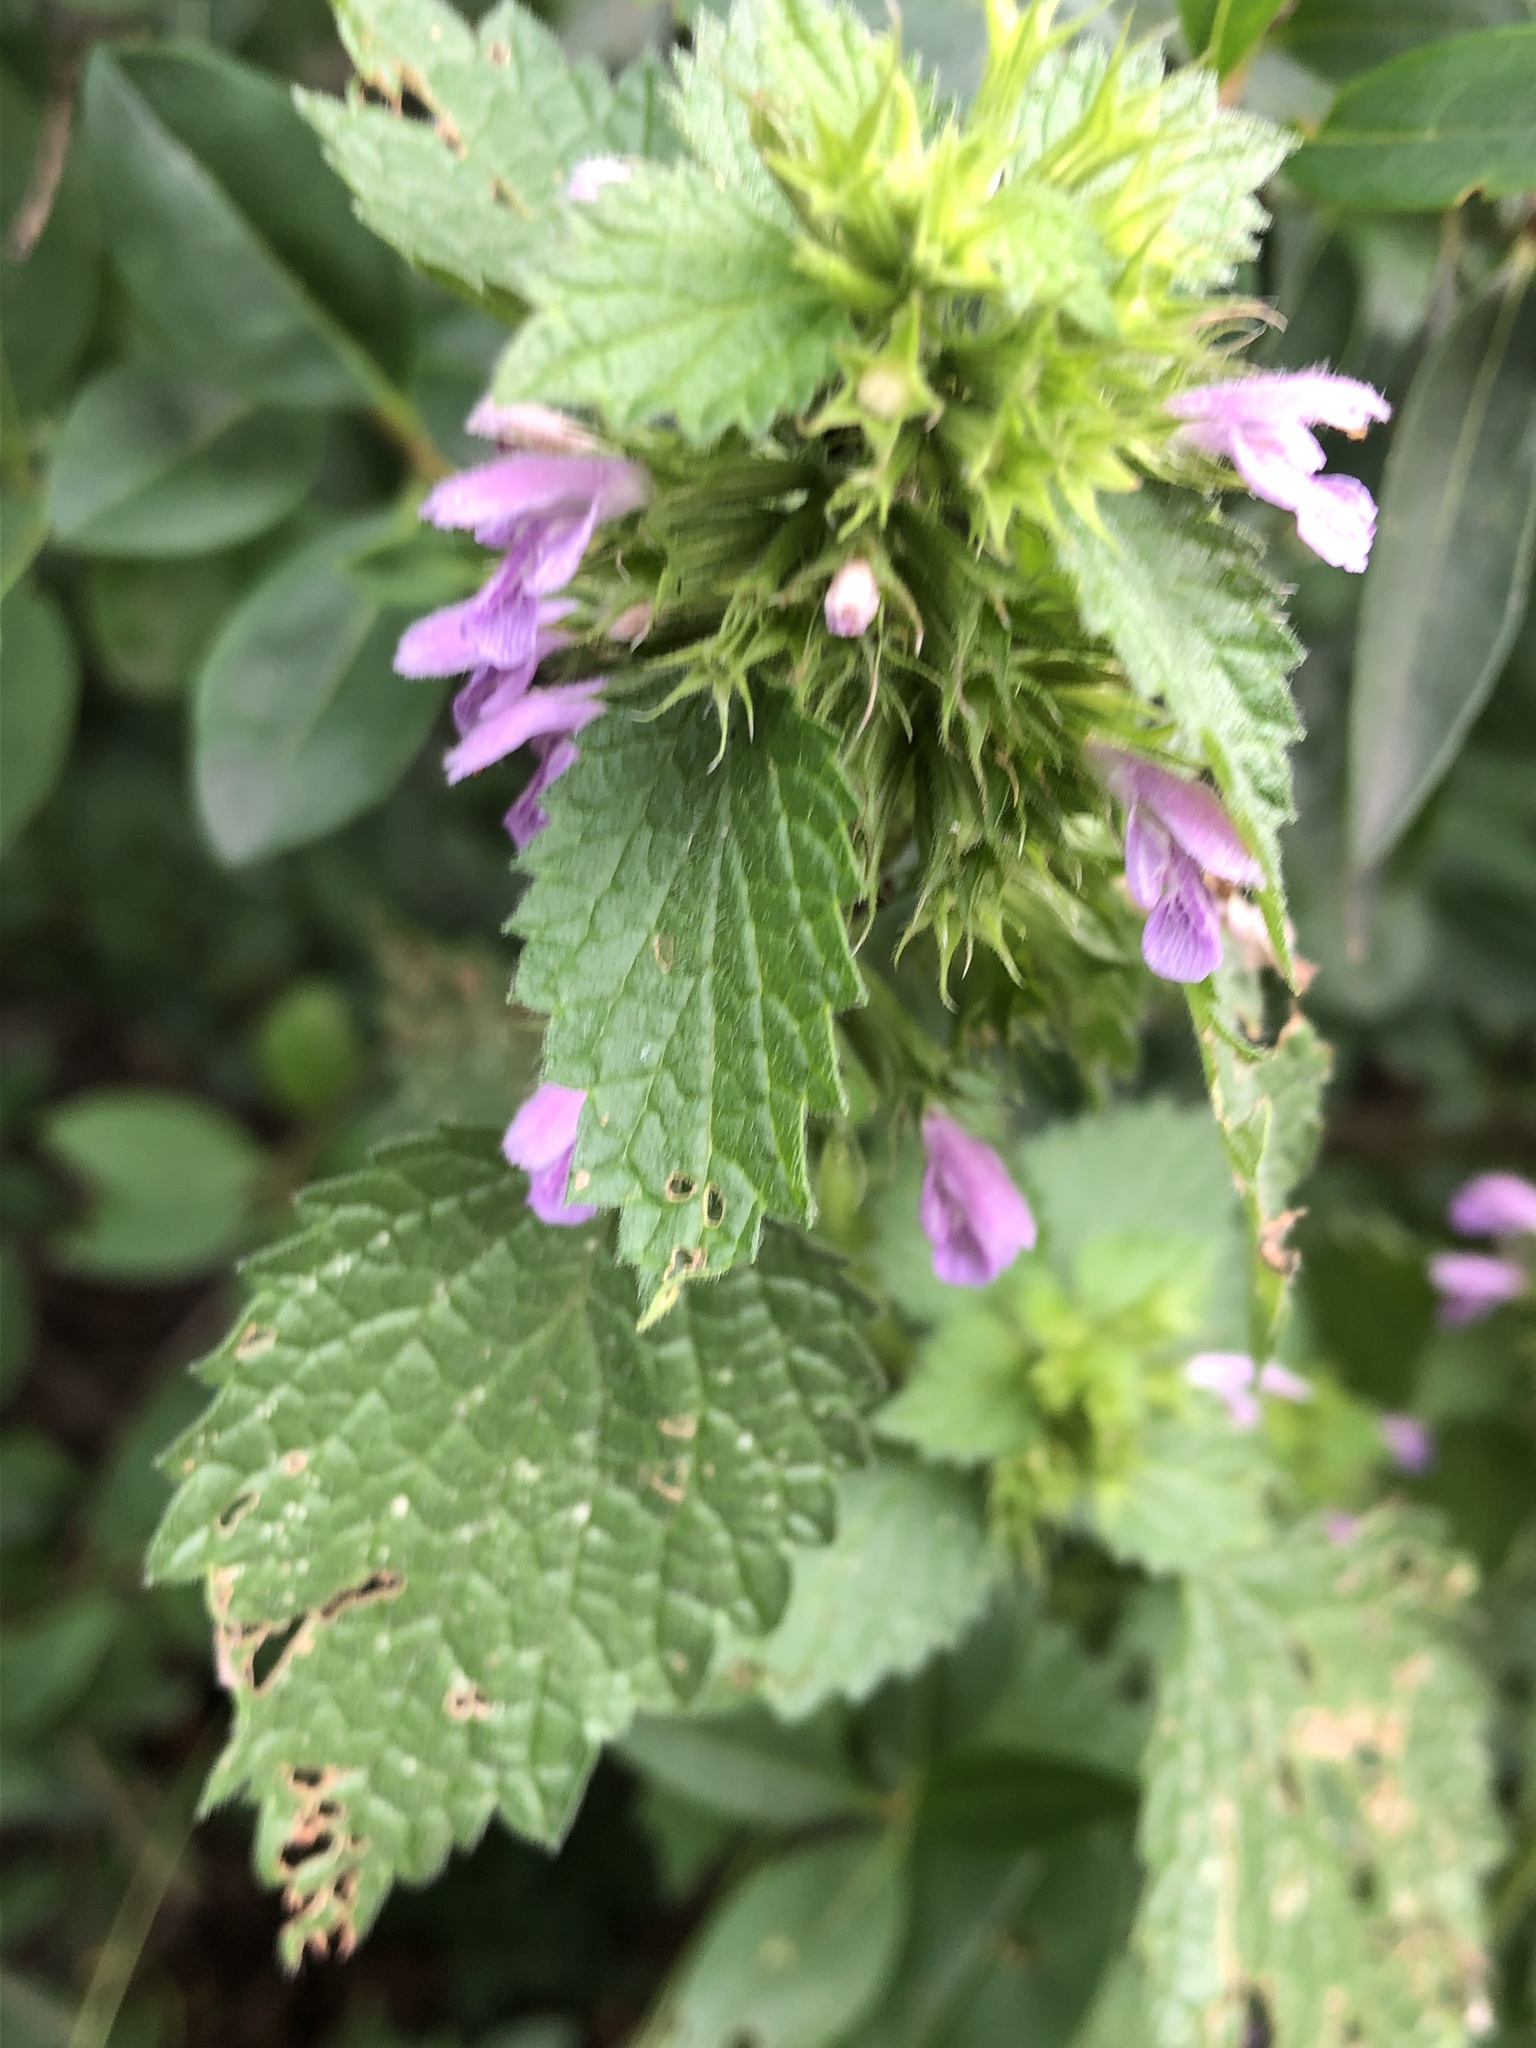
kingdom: Plantae
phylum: Tracheophyta
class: Magnoliopsida
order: Lamiales
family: Lamiaceae
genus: Ballota
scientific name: Ballota nigra
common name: Black horehound
